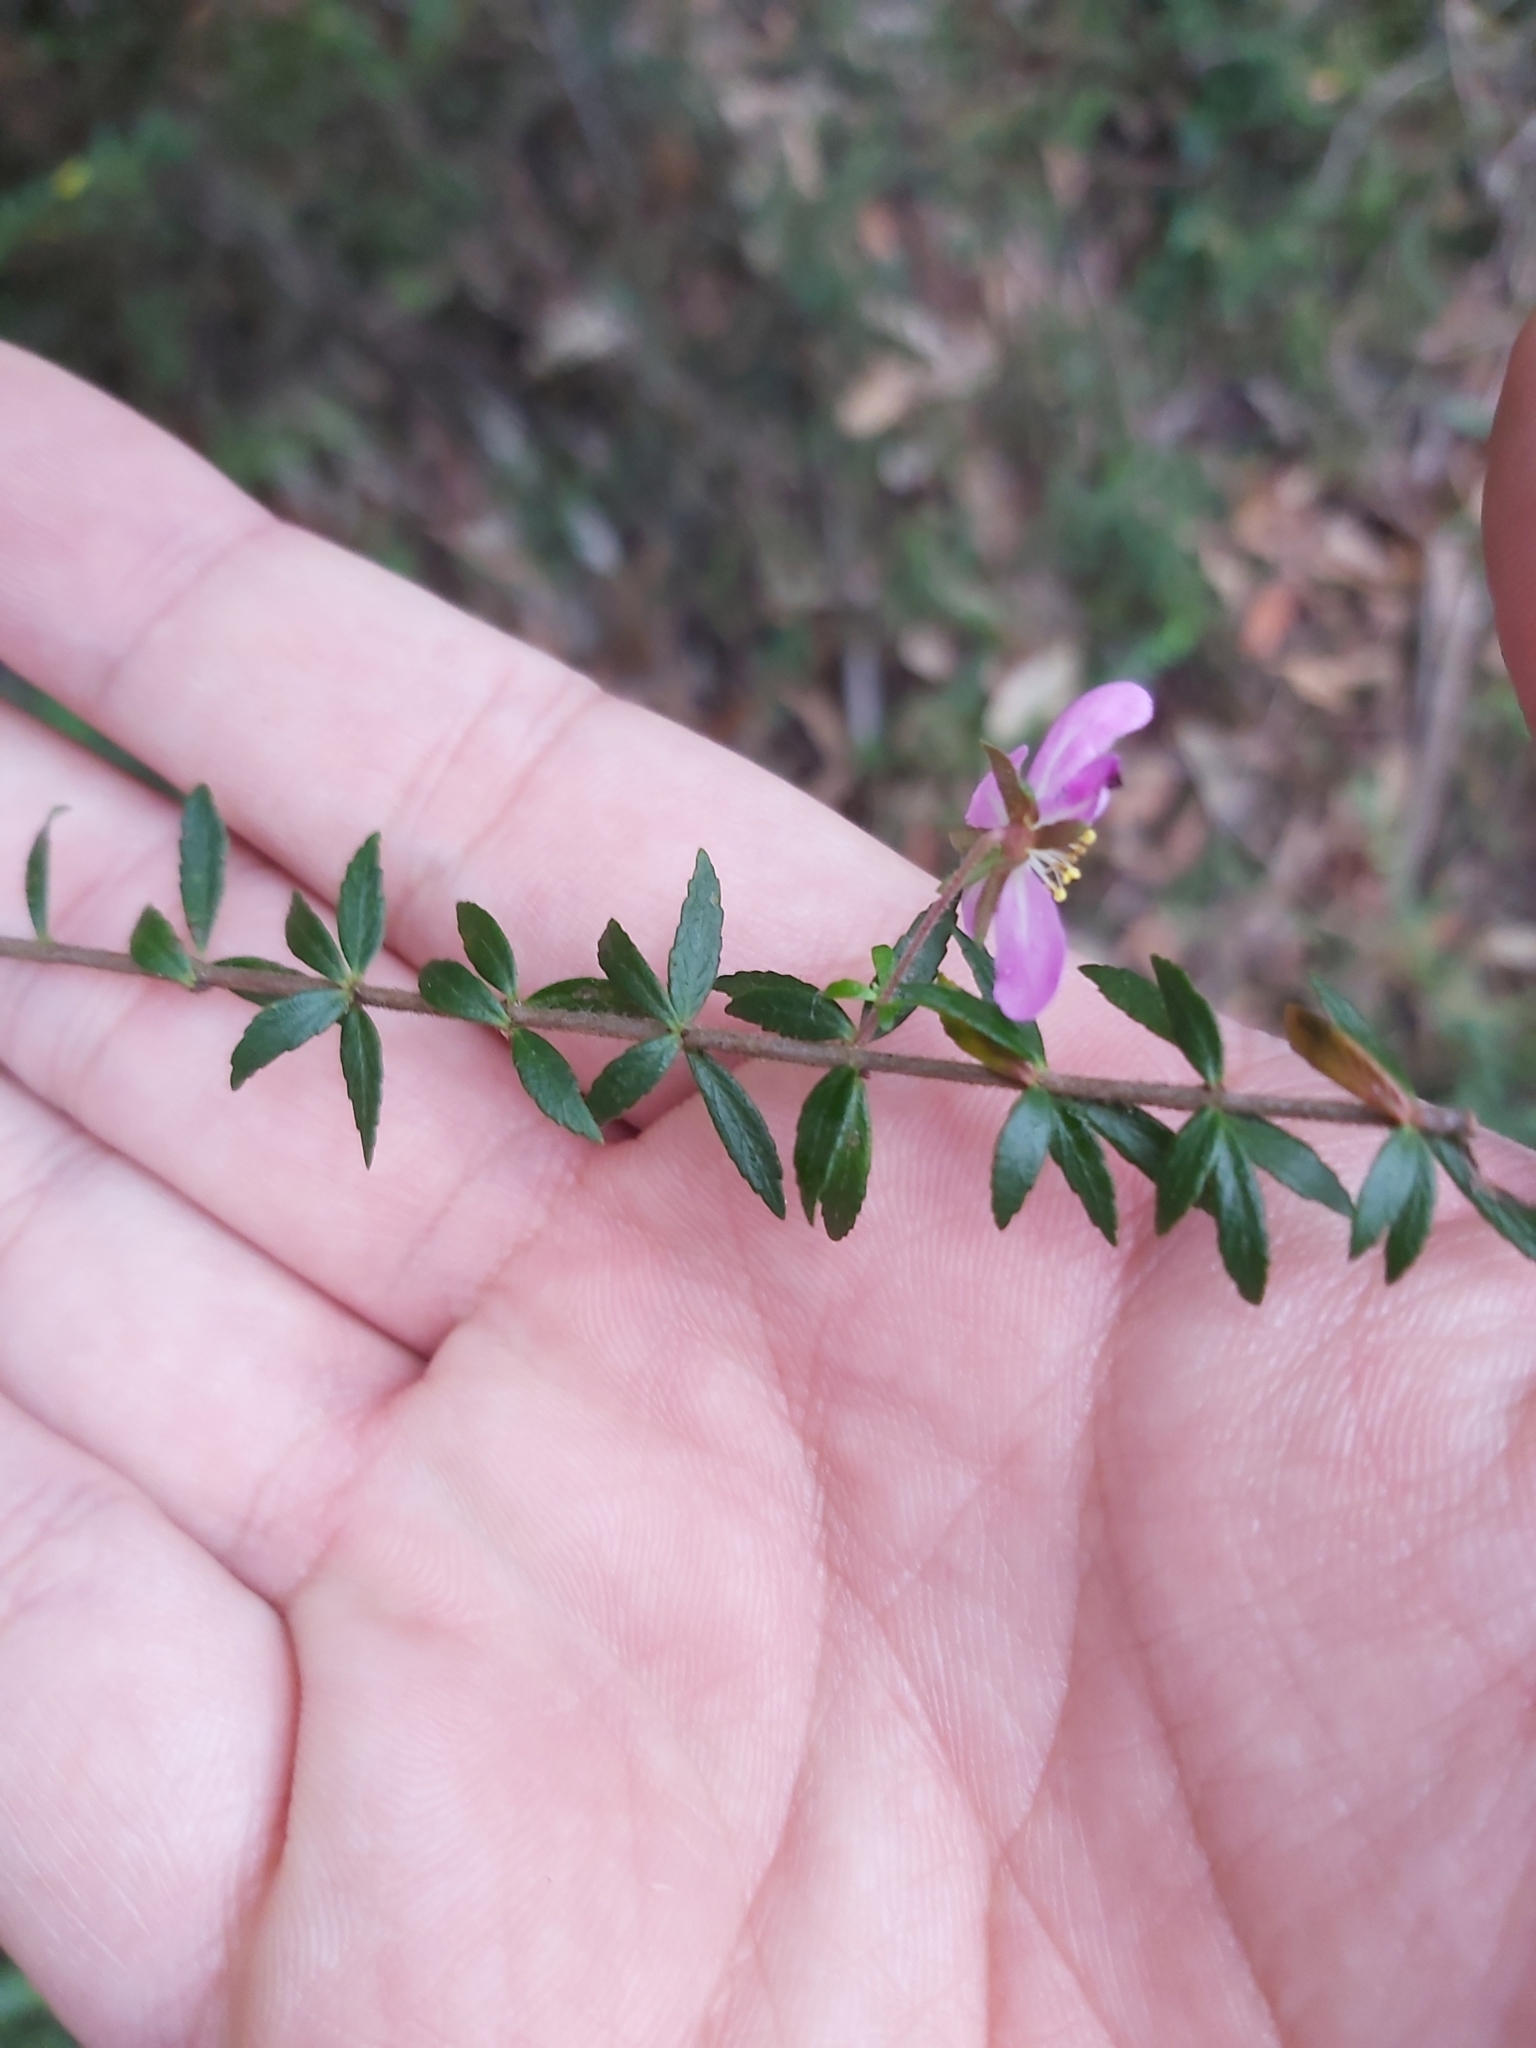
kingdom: Plantae
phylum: Tracheophyta
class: Magnoliopsida
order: Oxalidales
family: Cunoniaceae
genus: Bauera
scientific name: Bauera rubioides
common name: River-rose
